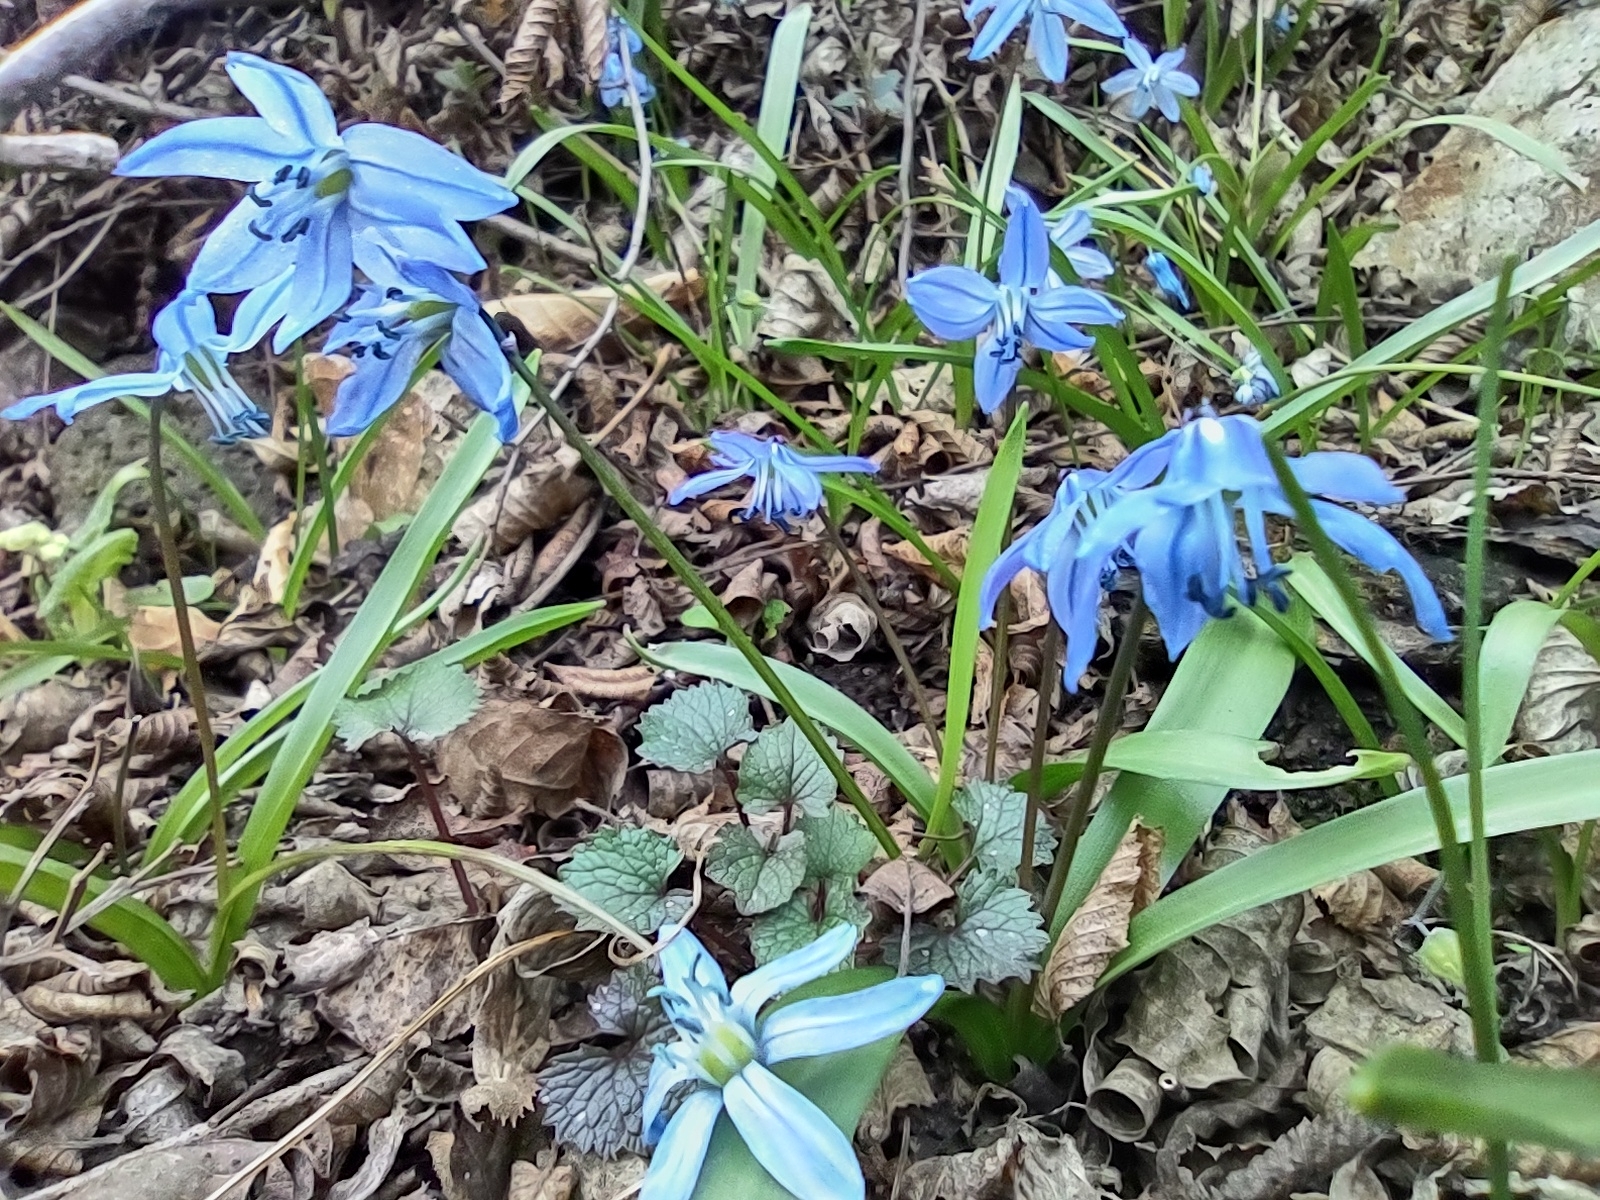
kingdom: Plantae
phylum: Tracheophyta
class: Liliopsida
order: Asparagales
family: Asparagaceae
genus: Scilla
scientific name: Scilla siberica
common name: Siberian squill
